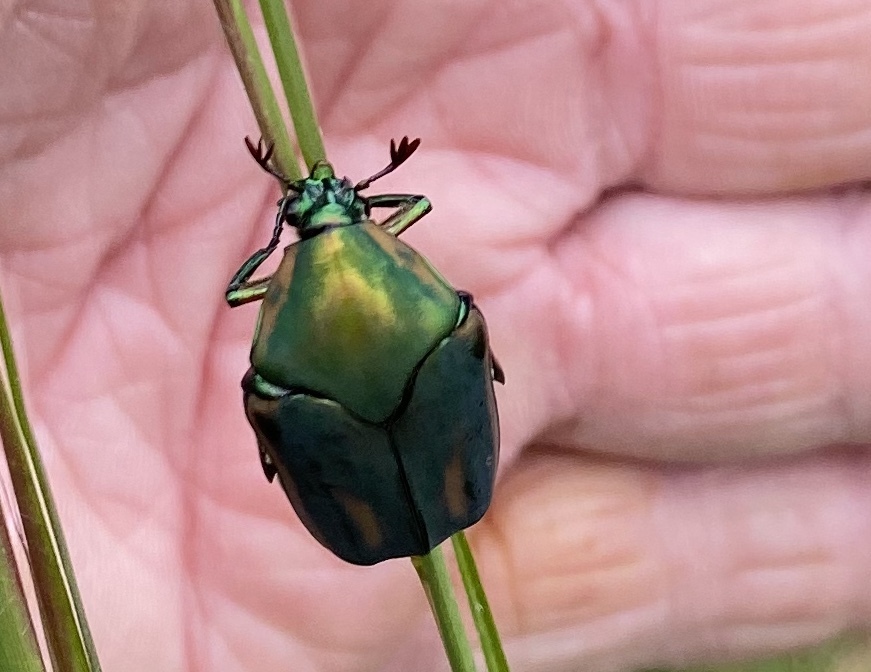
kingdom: Animalia
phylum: Arthropoda
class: Insecta
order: Coleoptera
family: Scarabaeidae
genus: Cotinis
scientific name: Cotinis nitida
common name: Common green june beetle
